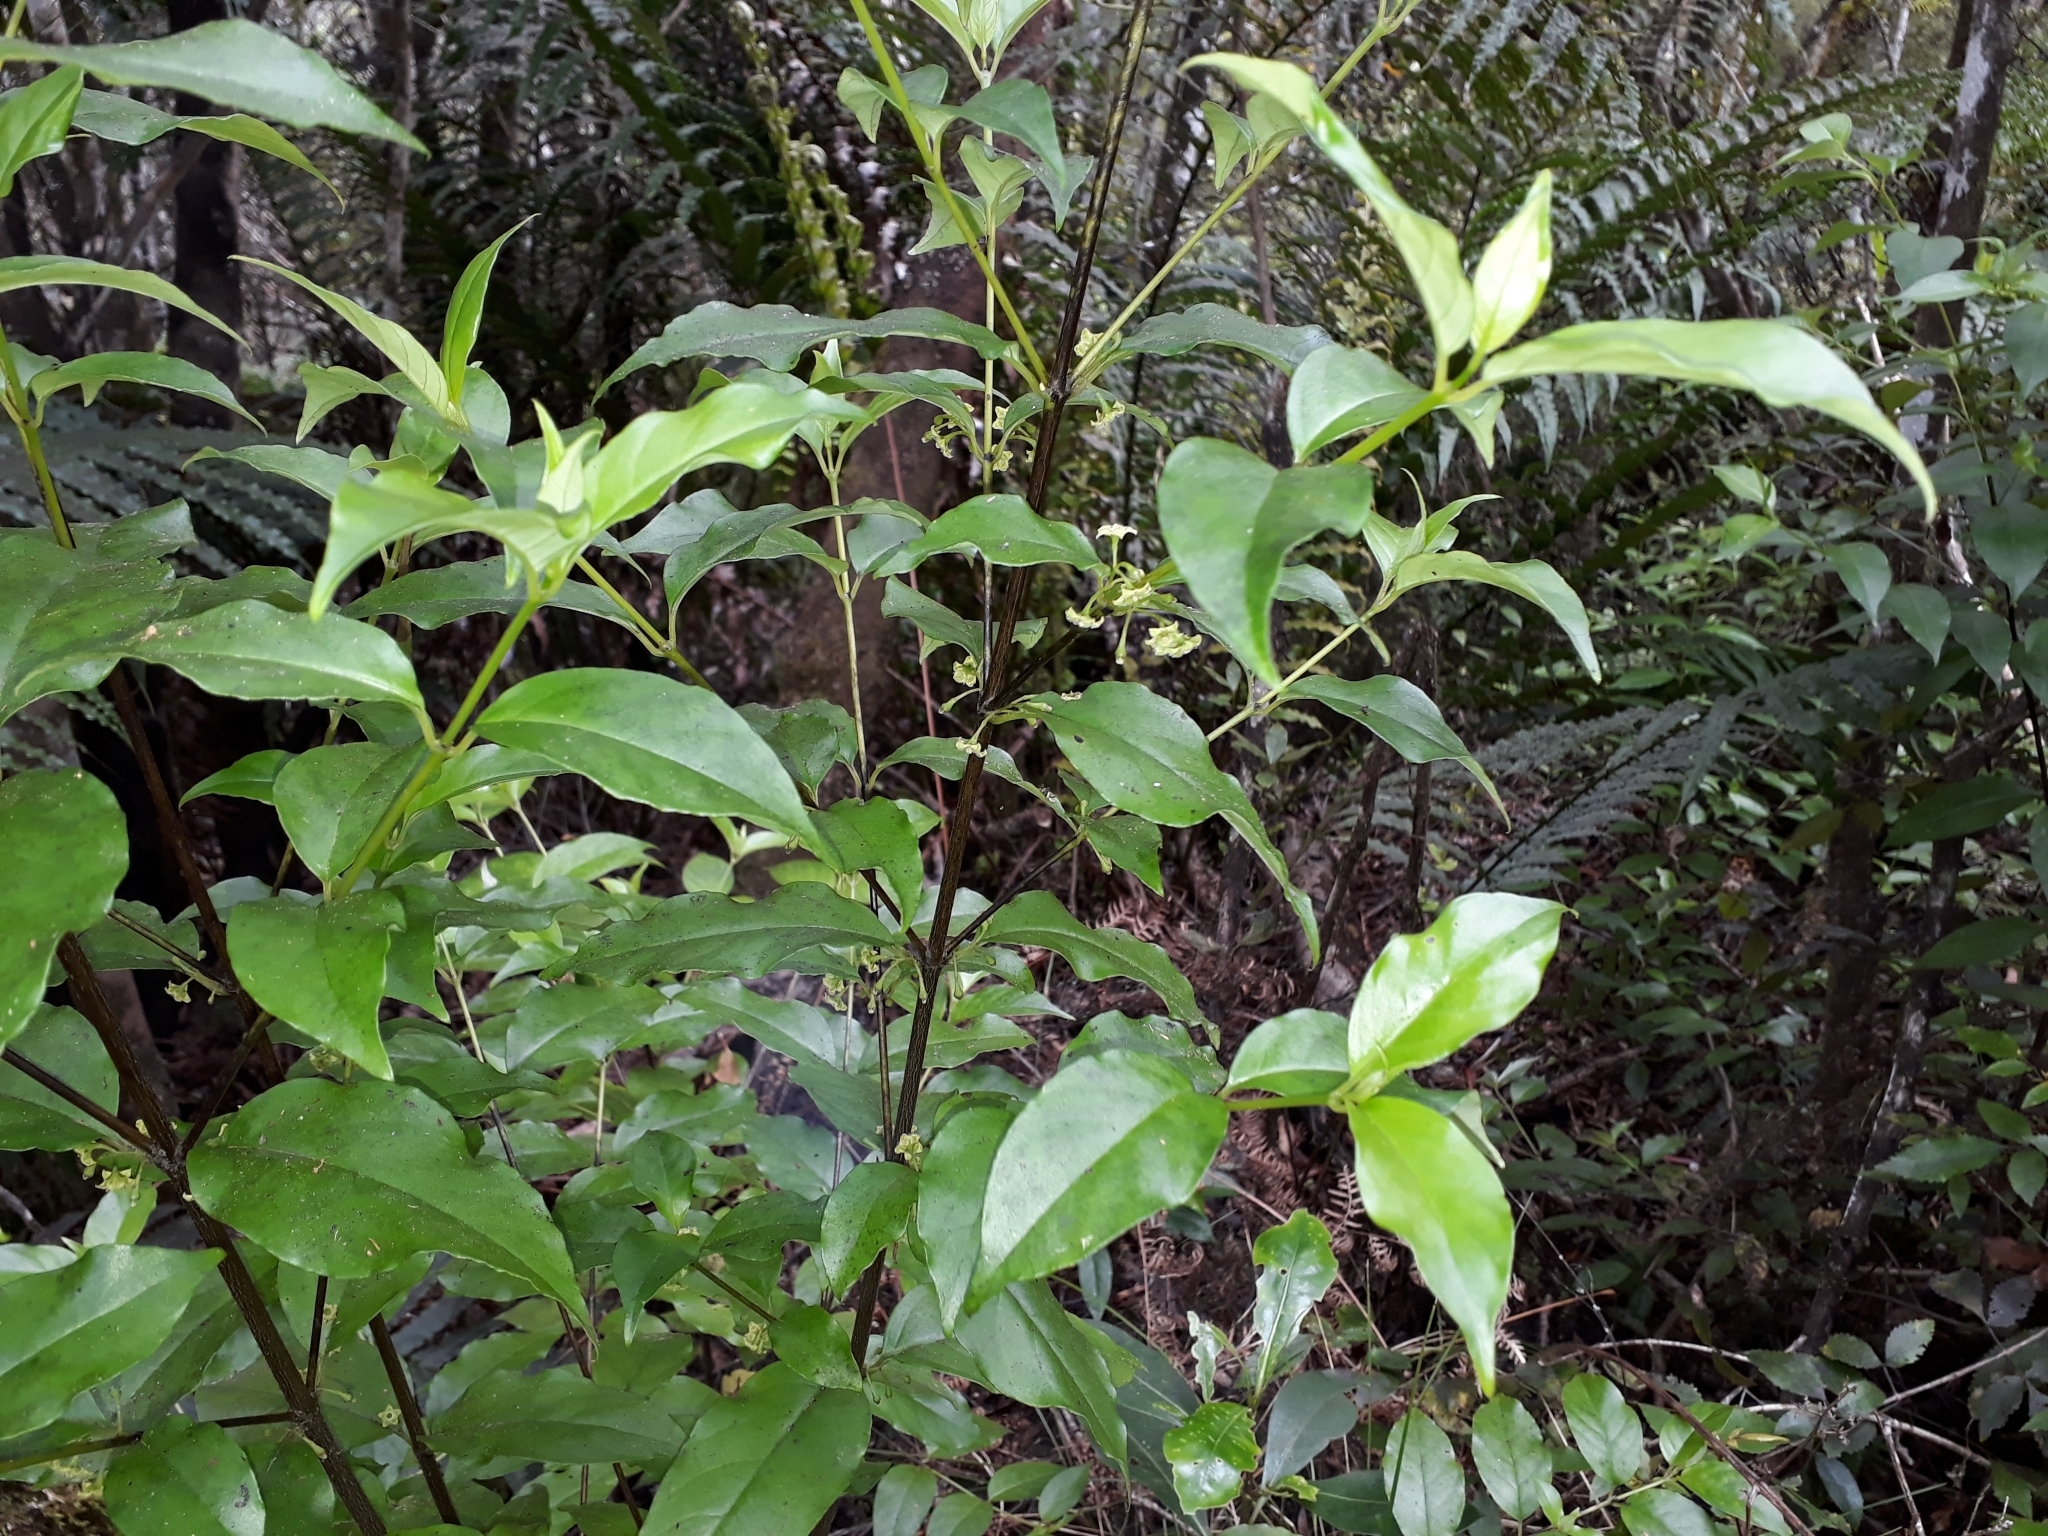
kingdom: Plantae
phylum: Tracheophyta
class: Magnoliopsida
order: Gentianales
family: Loganiaceae
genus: Geniostoma
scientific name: Geniostoma ligustrifolium
